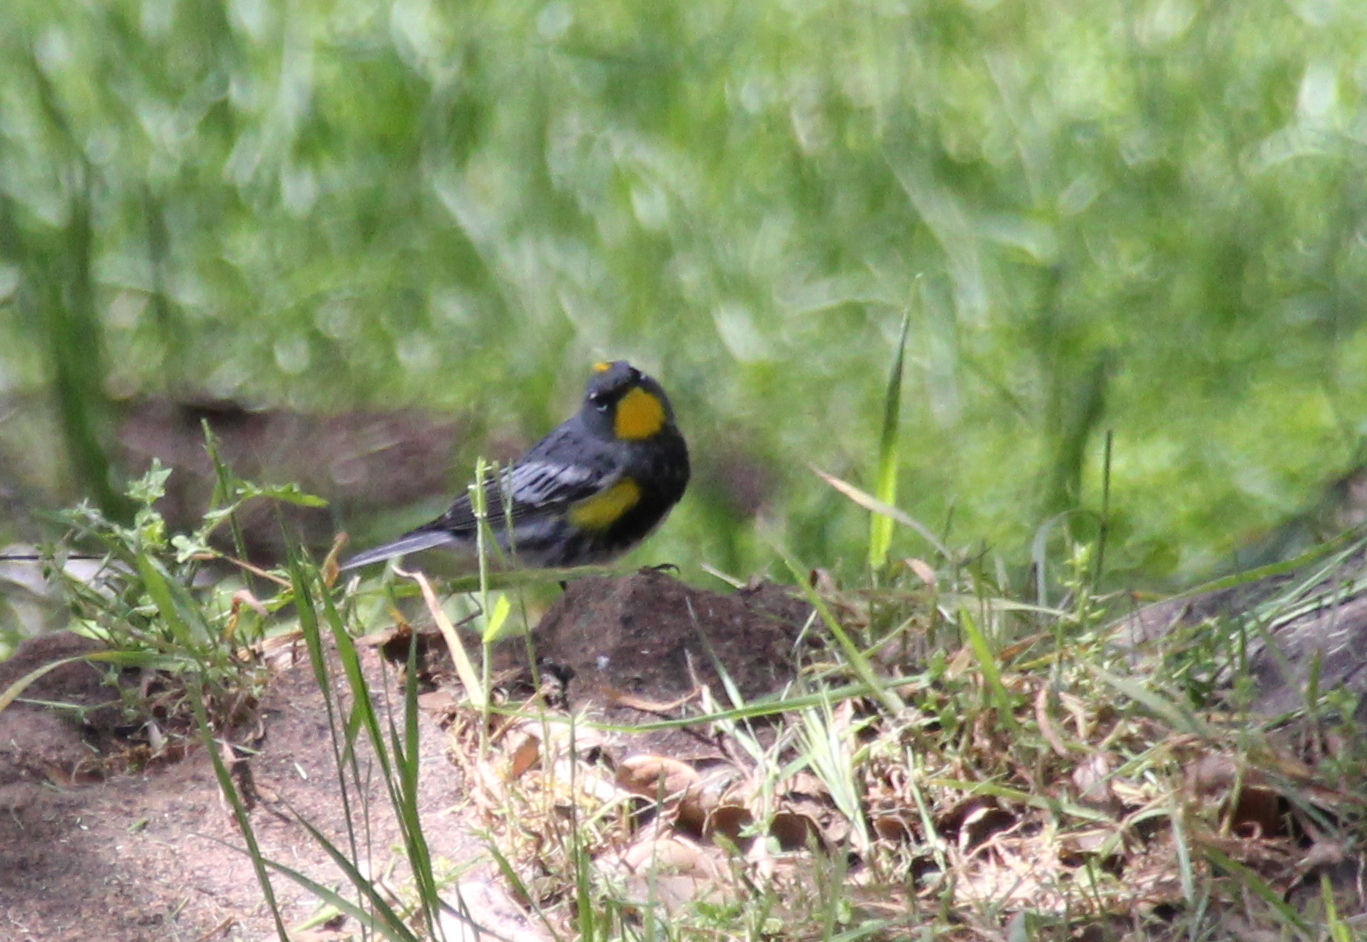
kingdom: Animalia
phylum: Chordata
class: Aves
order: Passeriformes
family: Parulidae
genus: Setophaga
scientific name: Setophaga auduboni
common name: Audubon's warbler
